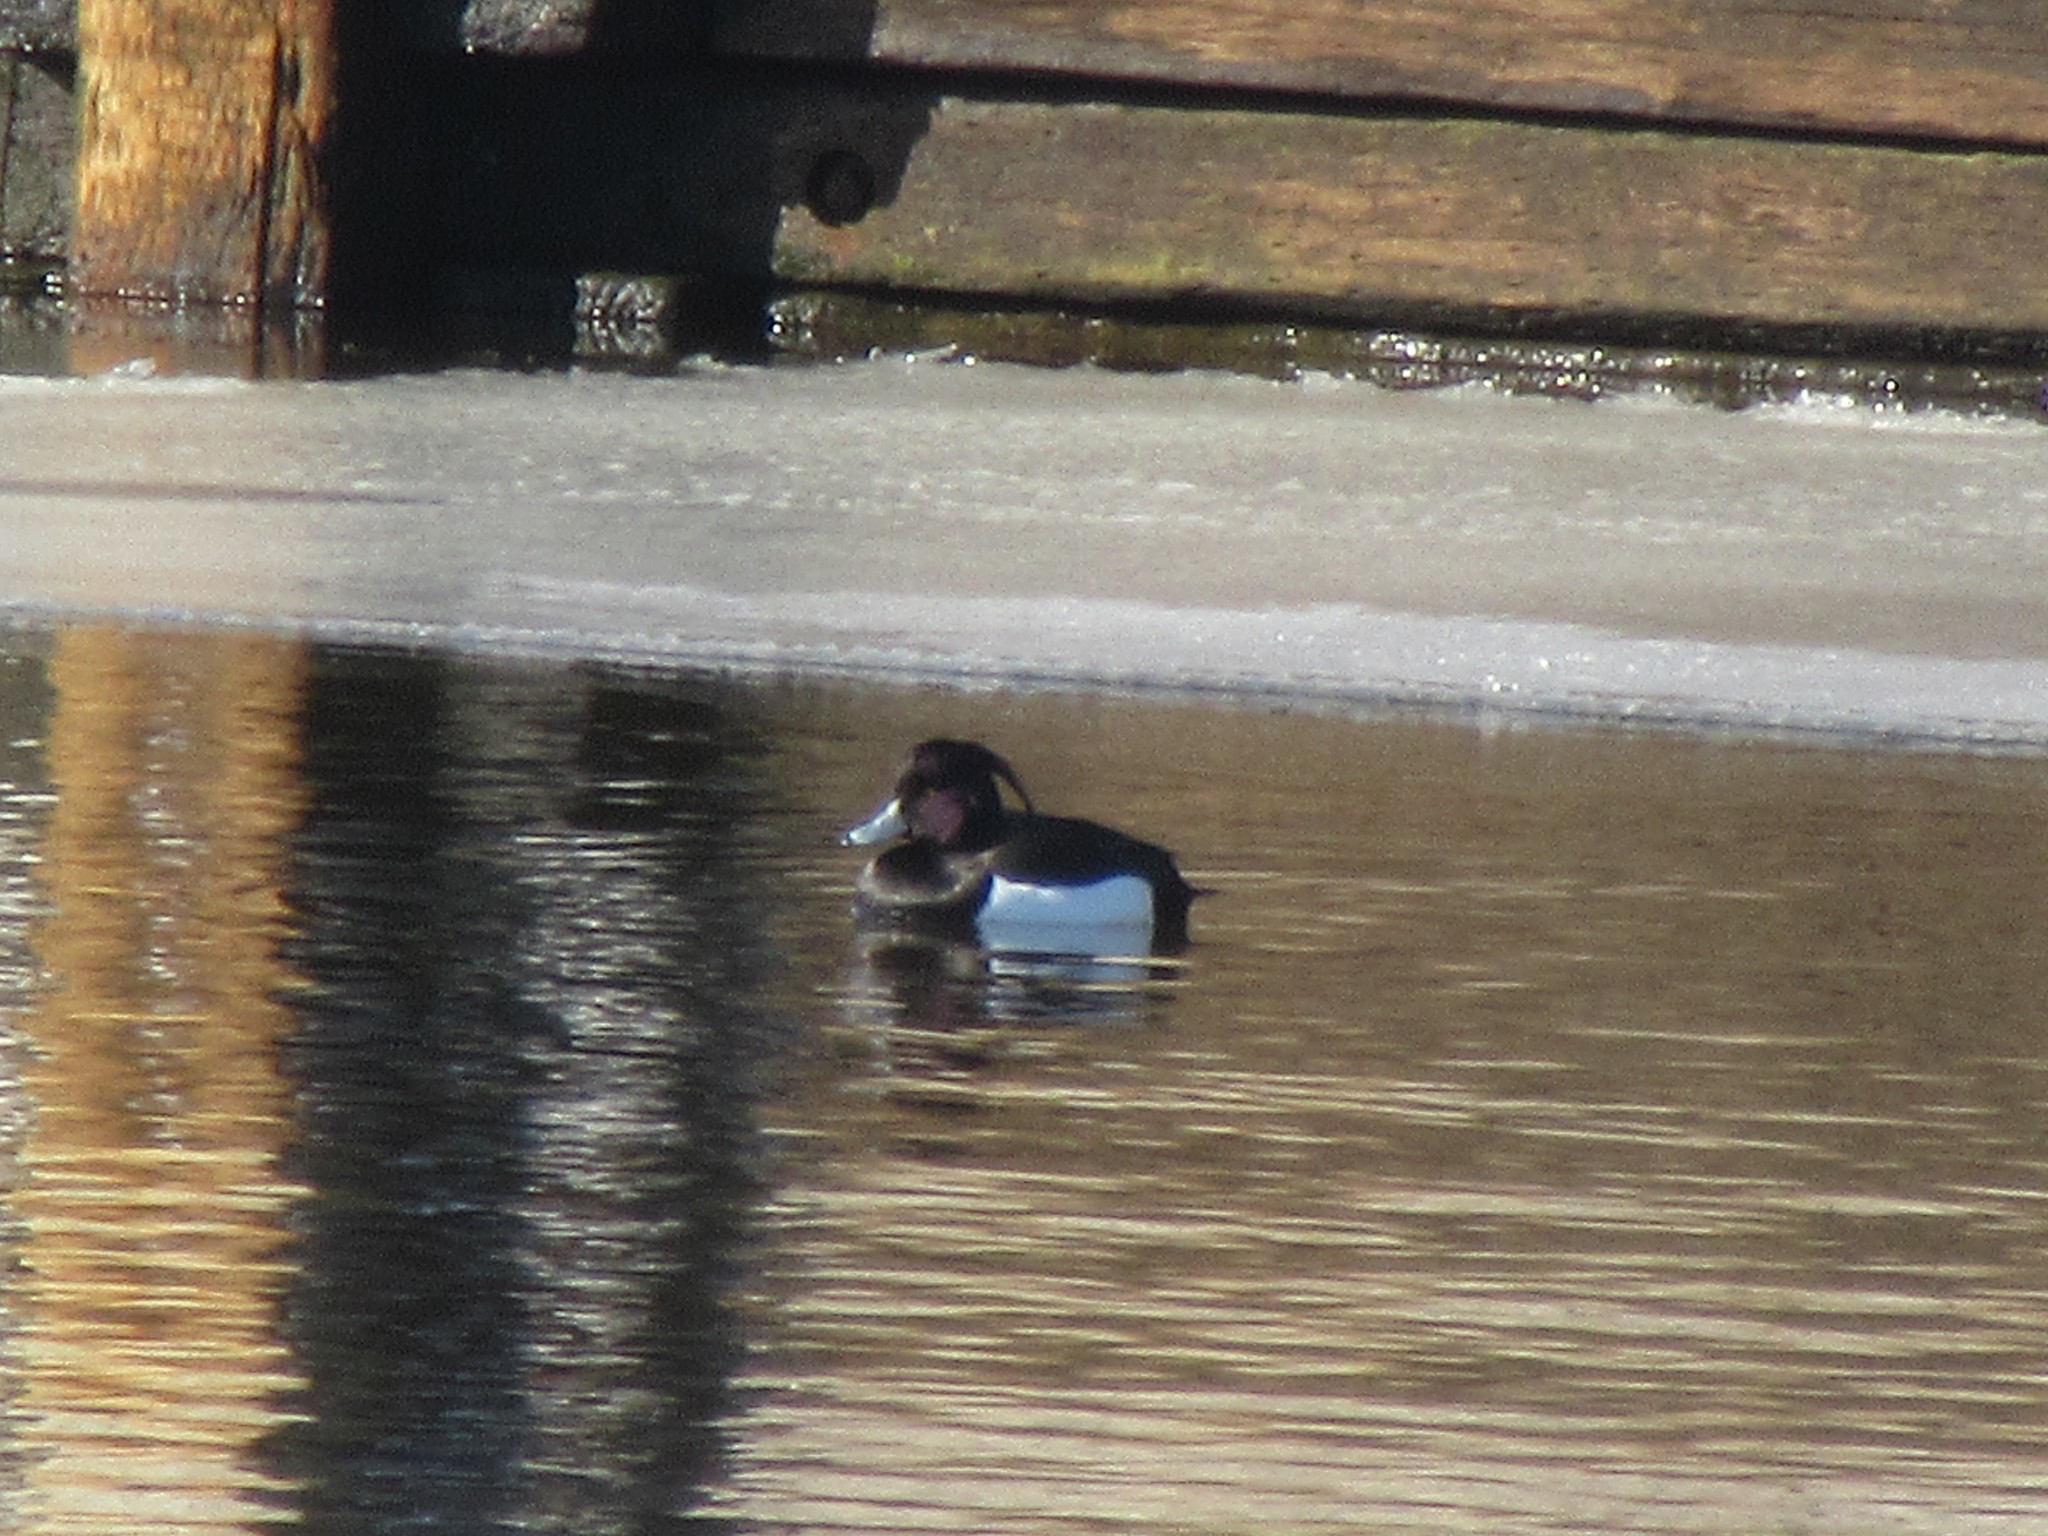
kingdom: Animalia
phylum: Chordata
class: Aves
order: Anseriformes
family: Anatidae
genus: Aythya
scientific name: Aythya fuligula
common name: Tufted duck
